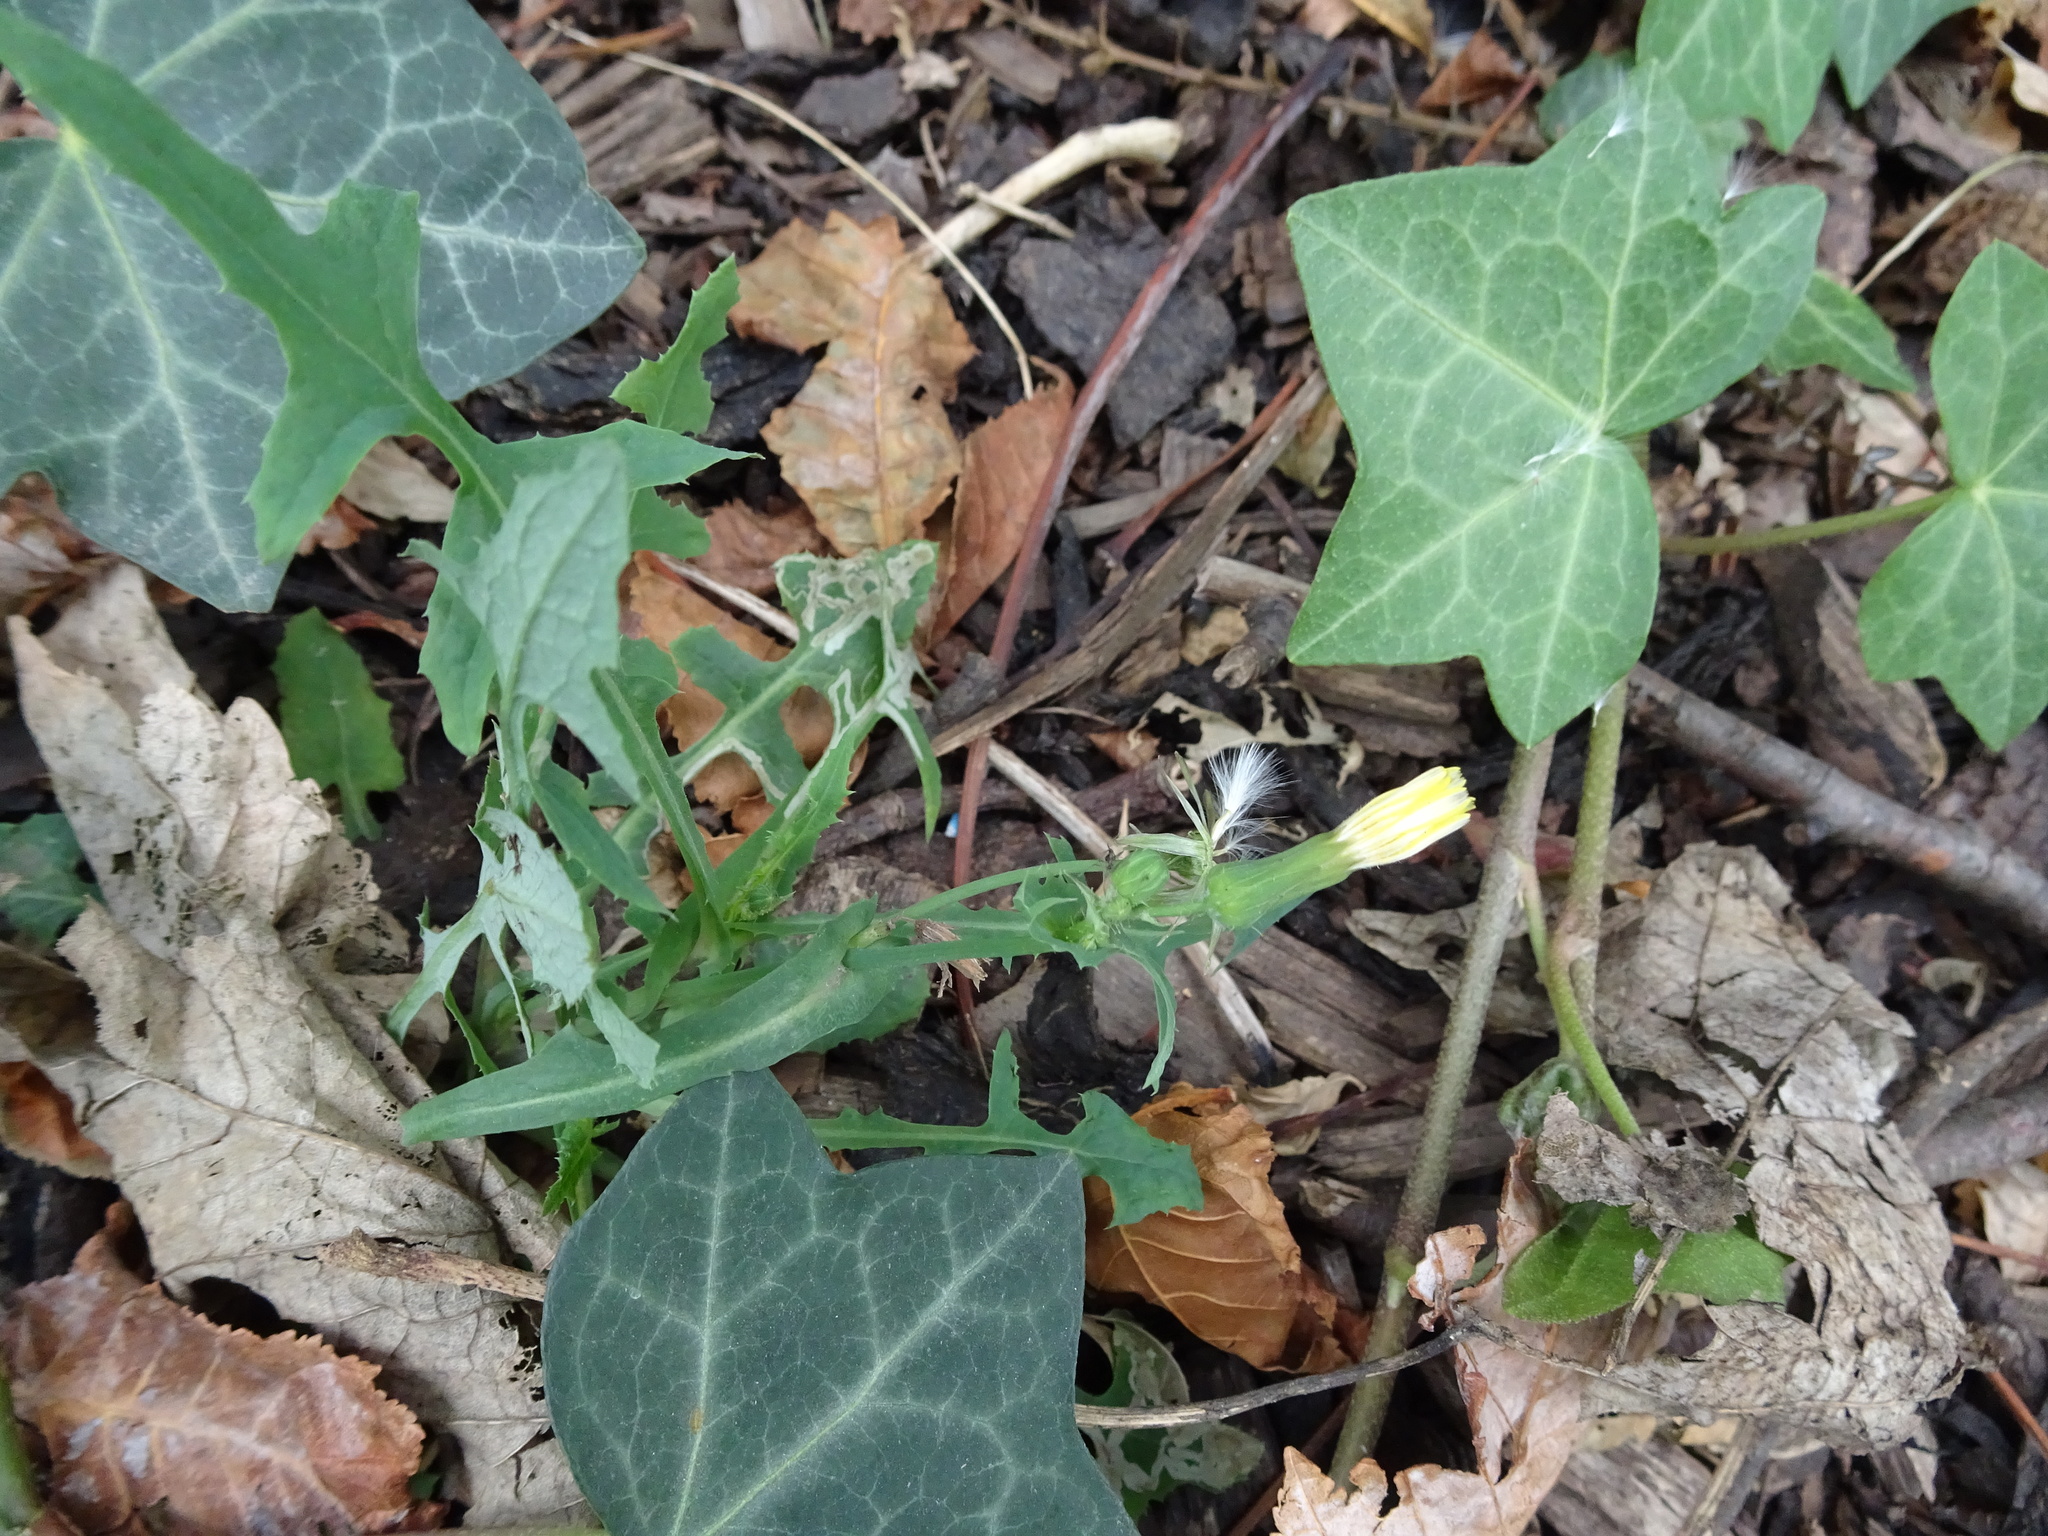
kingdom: Plantae
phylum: Tracheophyta
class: Magnoliopsida
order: Asterales
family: Asteraceae
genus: Sonchus
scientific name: Sonchus oleraceus
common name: Common sowthistle
